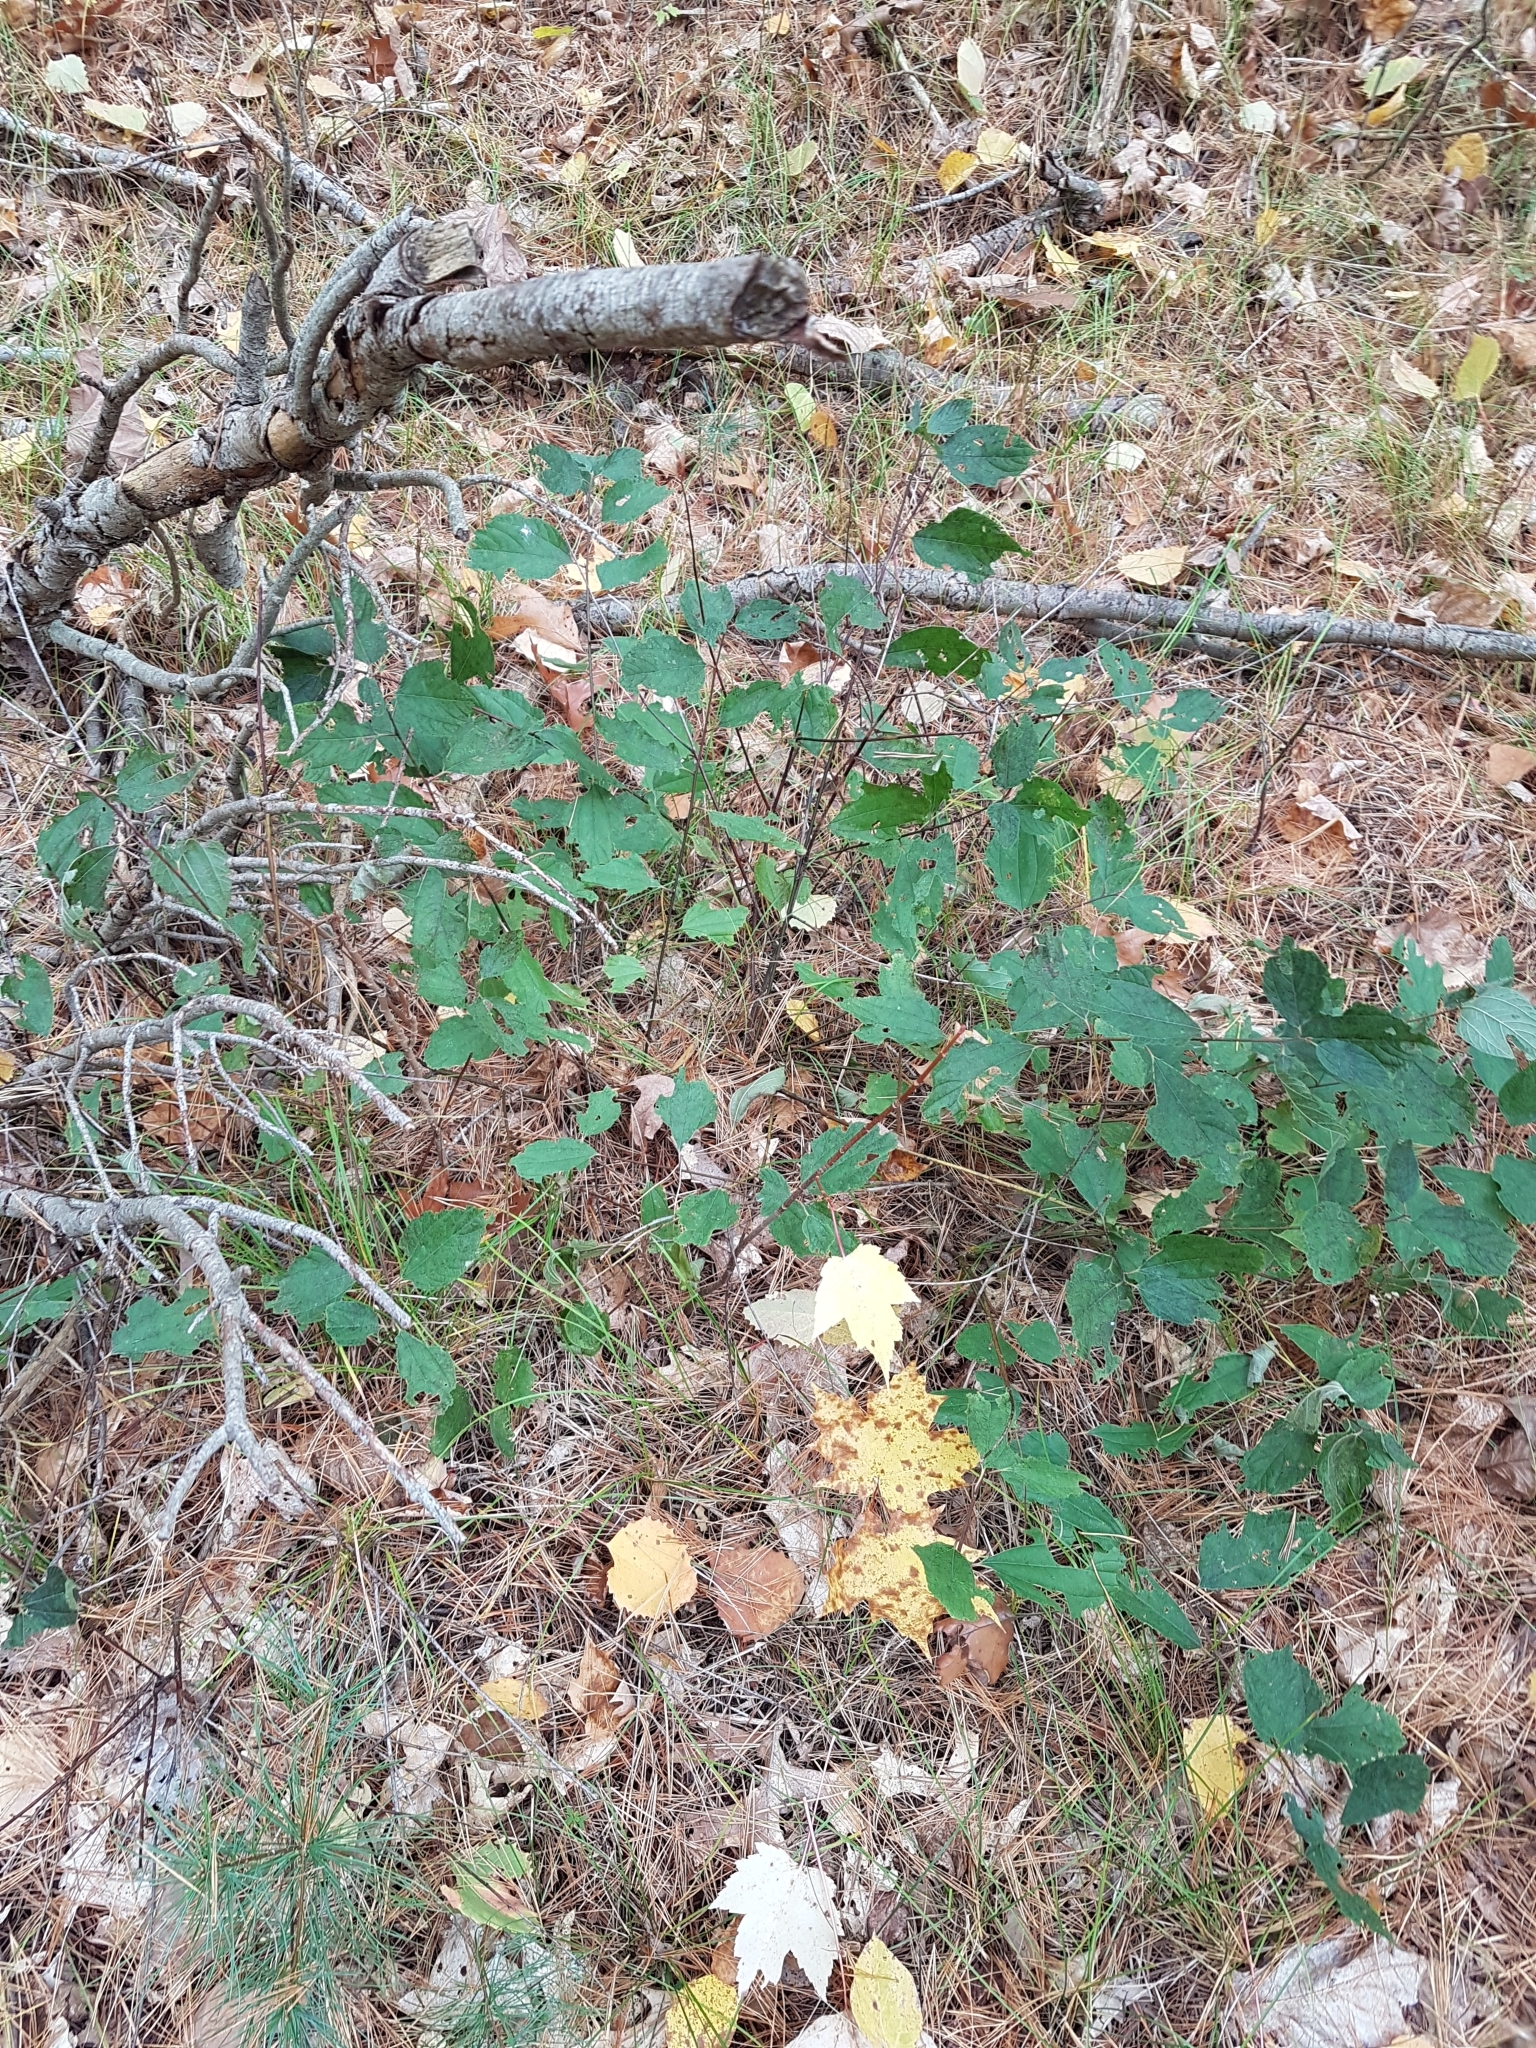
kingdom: Plantae
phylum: Tracheophyta
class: Magnoliopsida
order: Rosales
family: Rhamnaceae
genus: Ceanothus
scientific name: Ceanothus americanus
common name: Redroot
